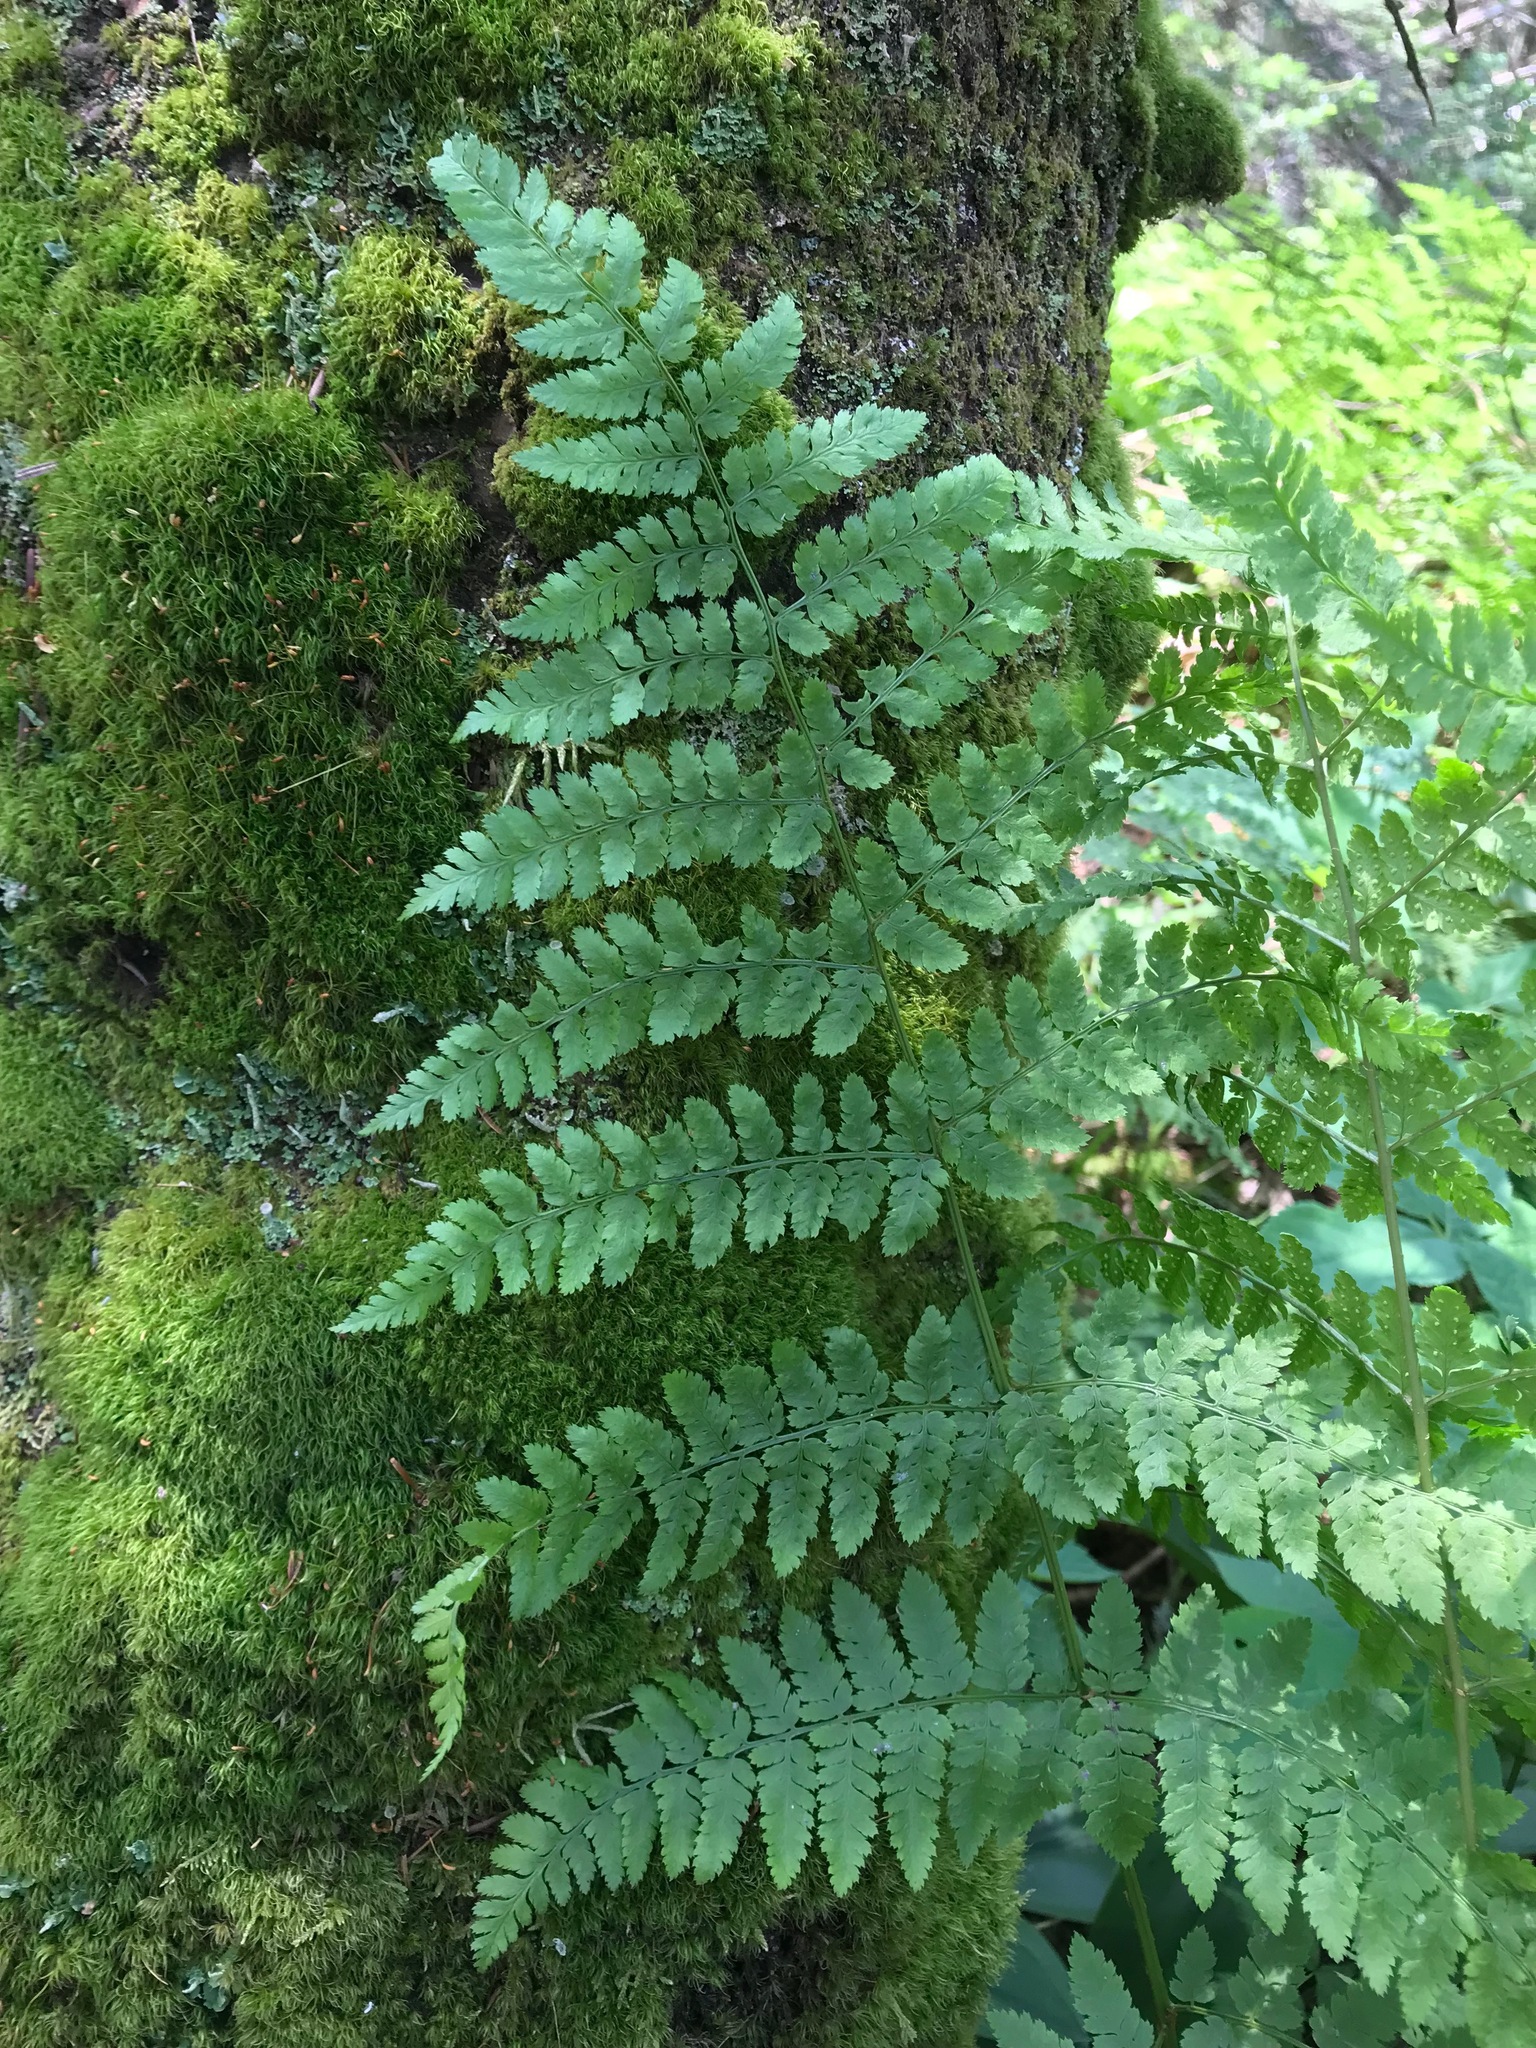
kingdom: Plantae
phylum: Tracheophyta
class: Polypodiopsida
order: Polypodiales
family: Dryopteridaceae
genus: Dryopteris
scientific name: Dryopteris intermedia
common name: Evergreen wood fern
